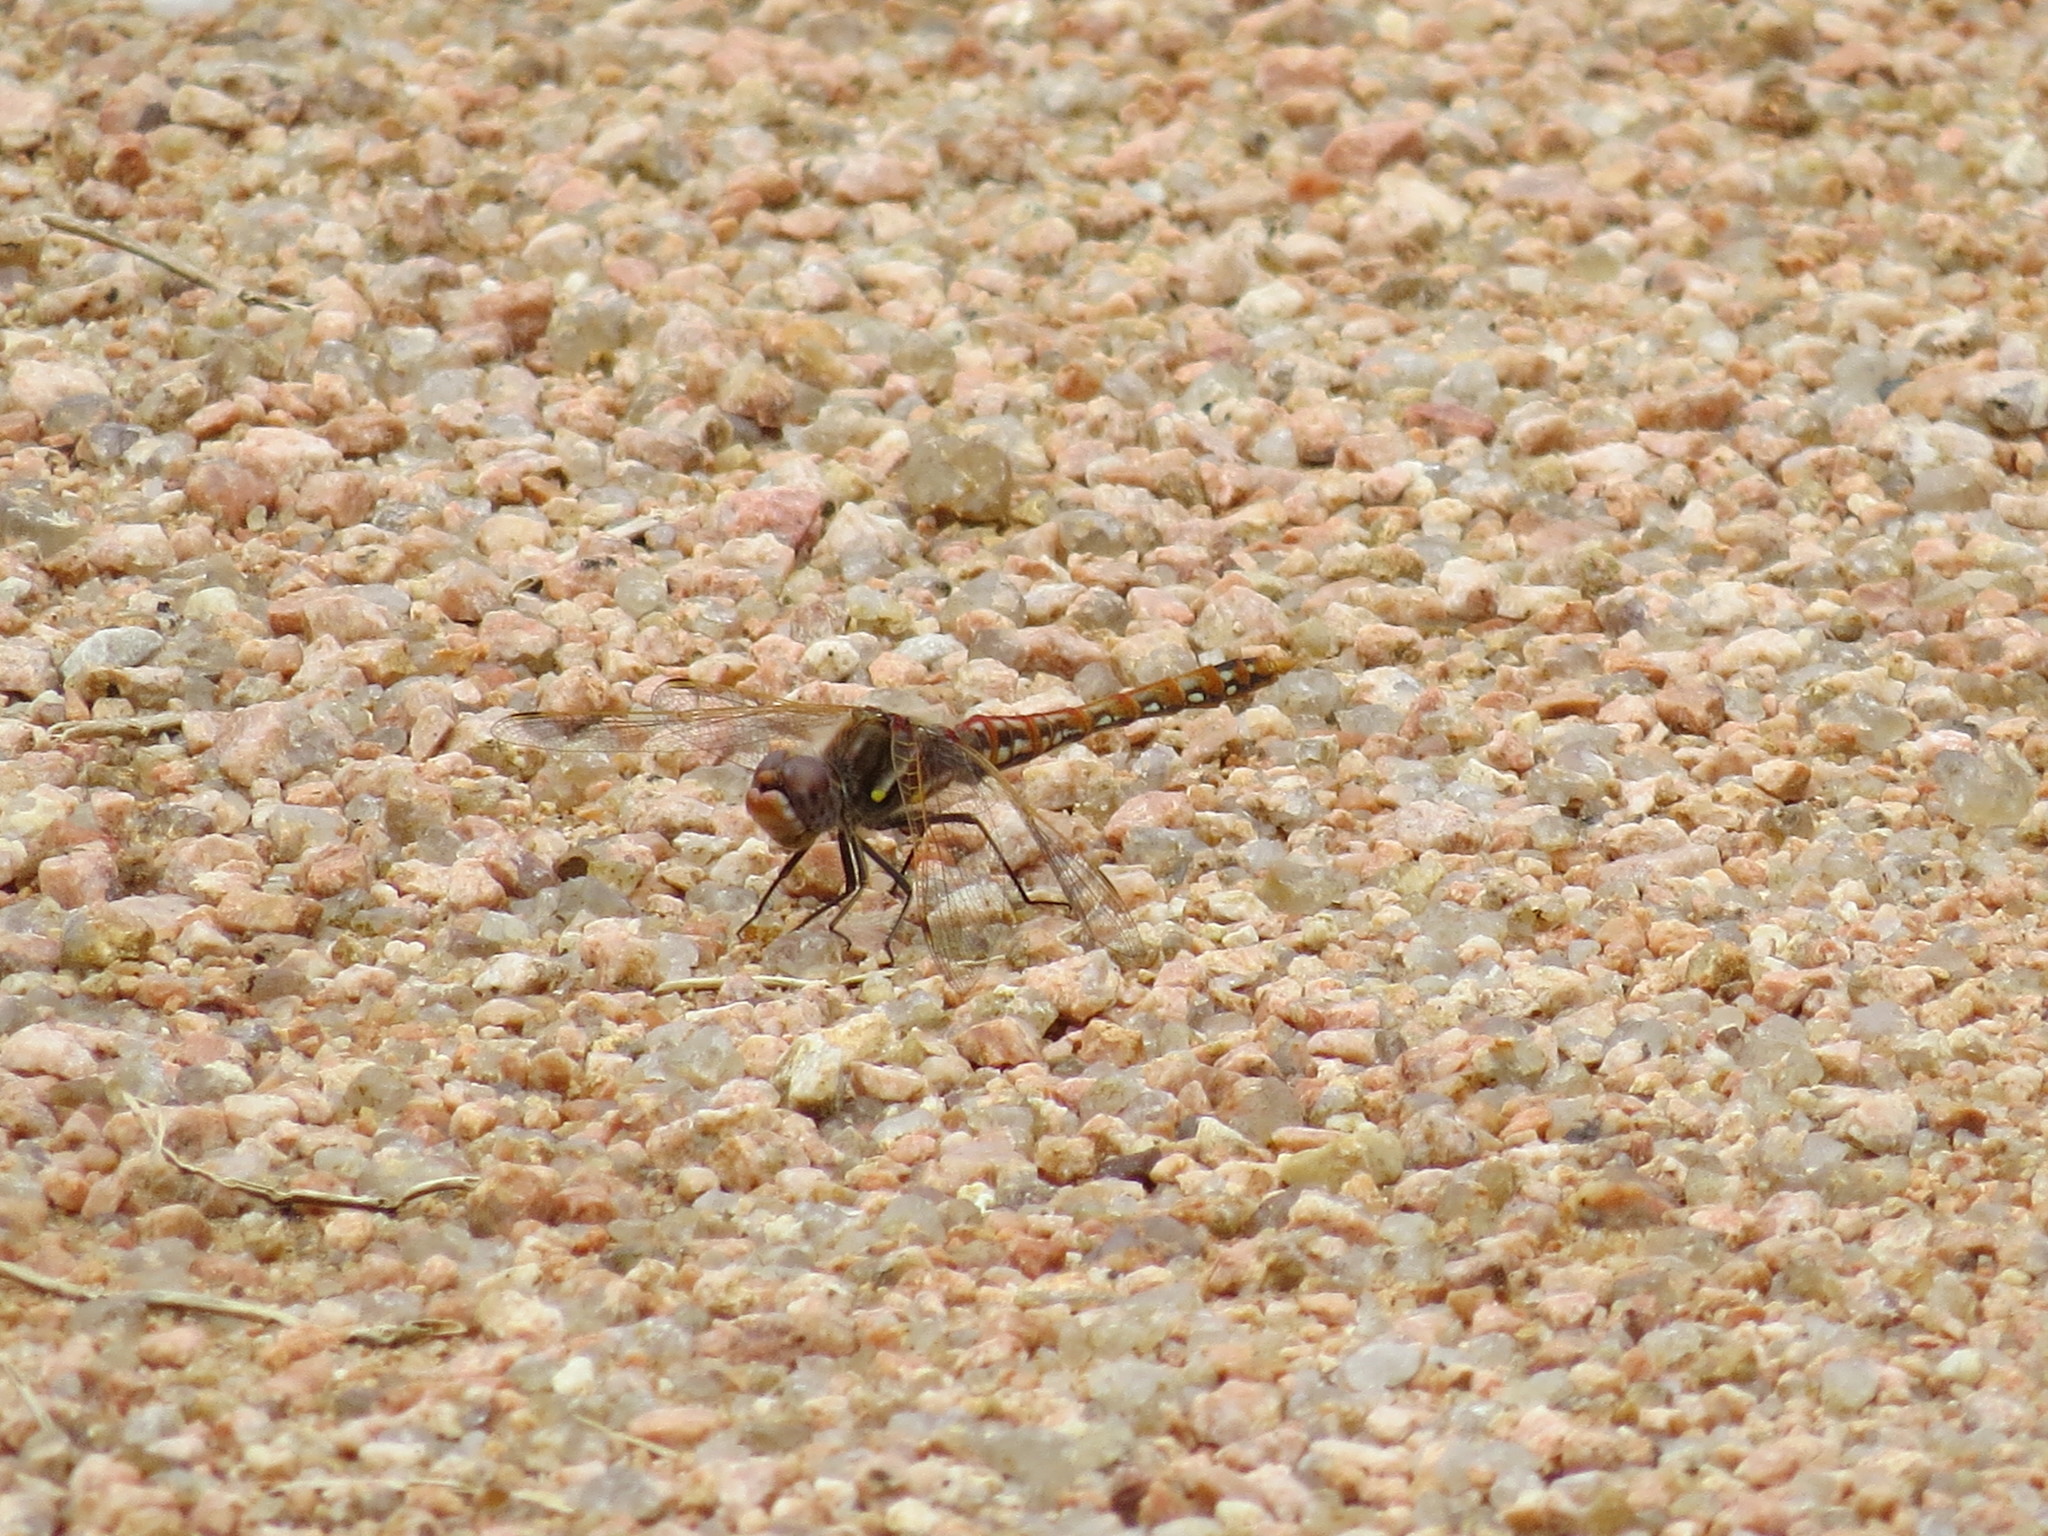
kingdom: Animalia
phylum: Arthropoda
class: Insecta
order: Odonata
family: Libellulidae
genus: Sympetrum
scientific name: Sympetrum corruptum
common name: Variegated meadowhawk
